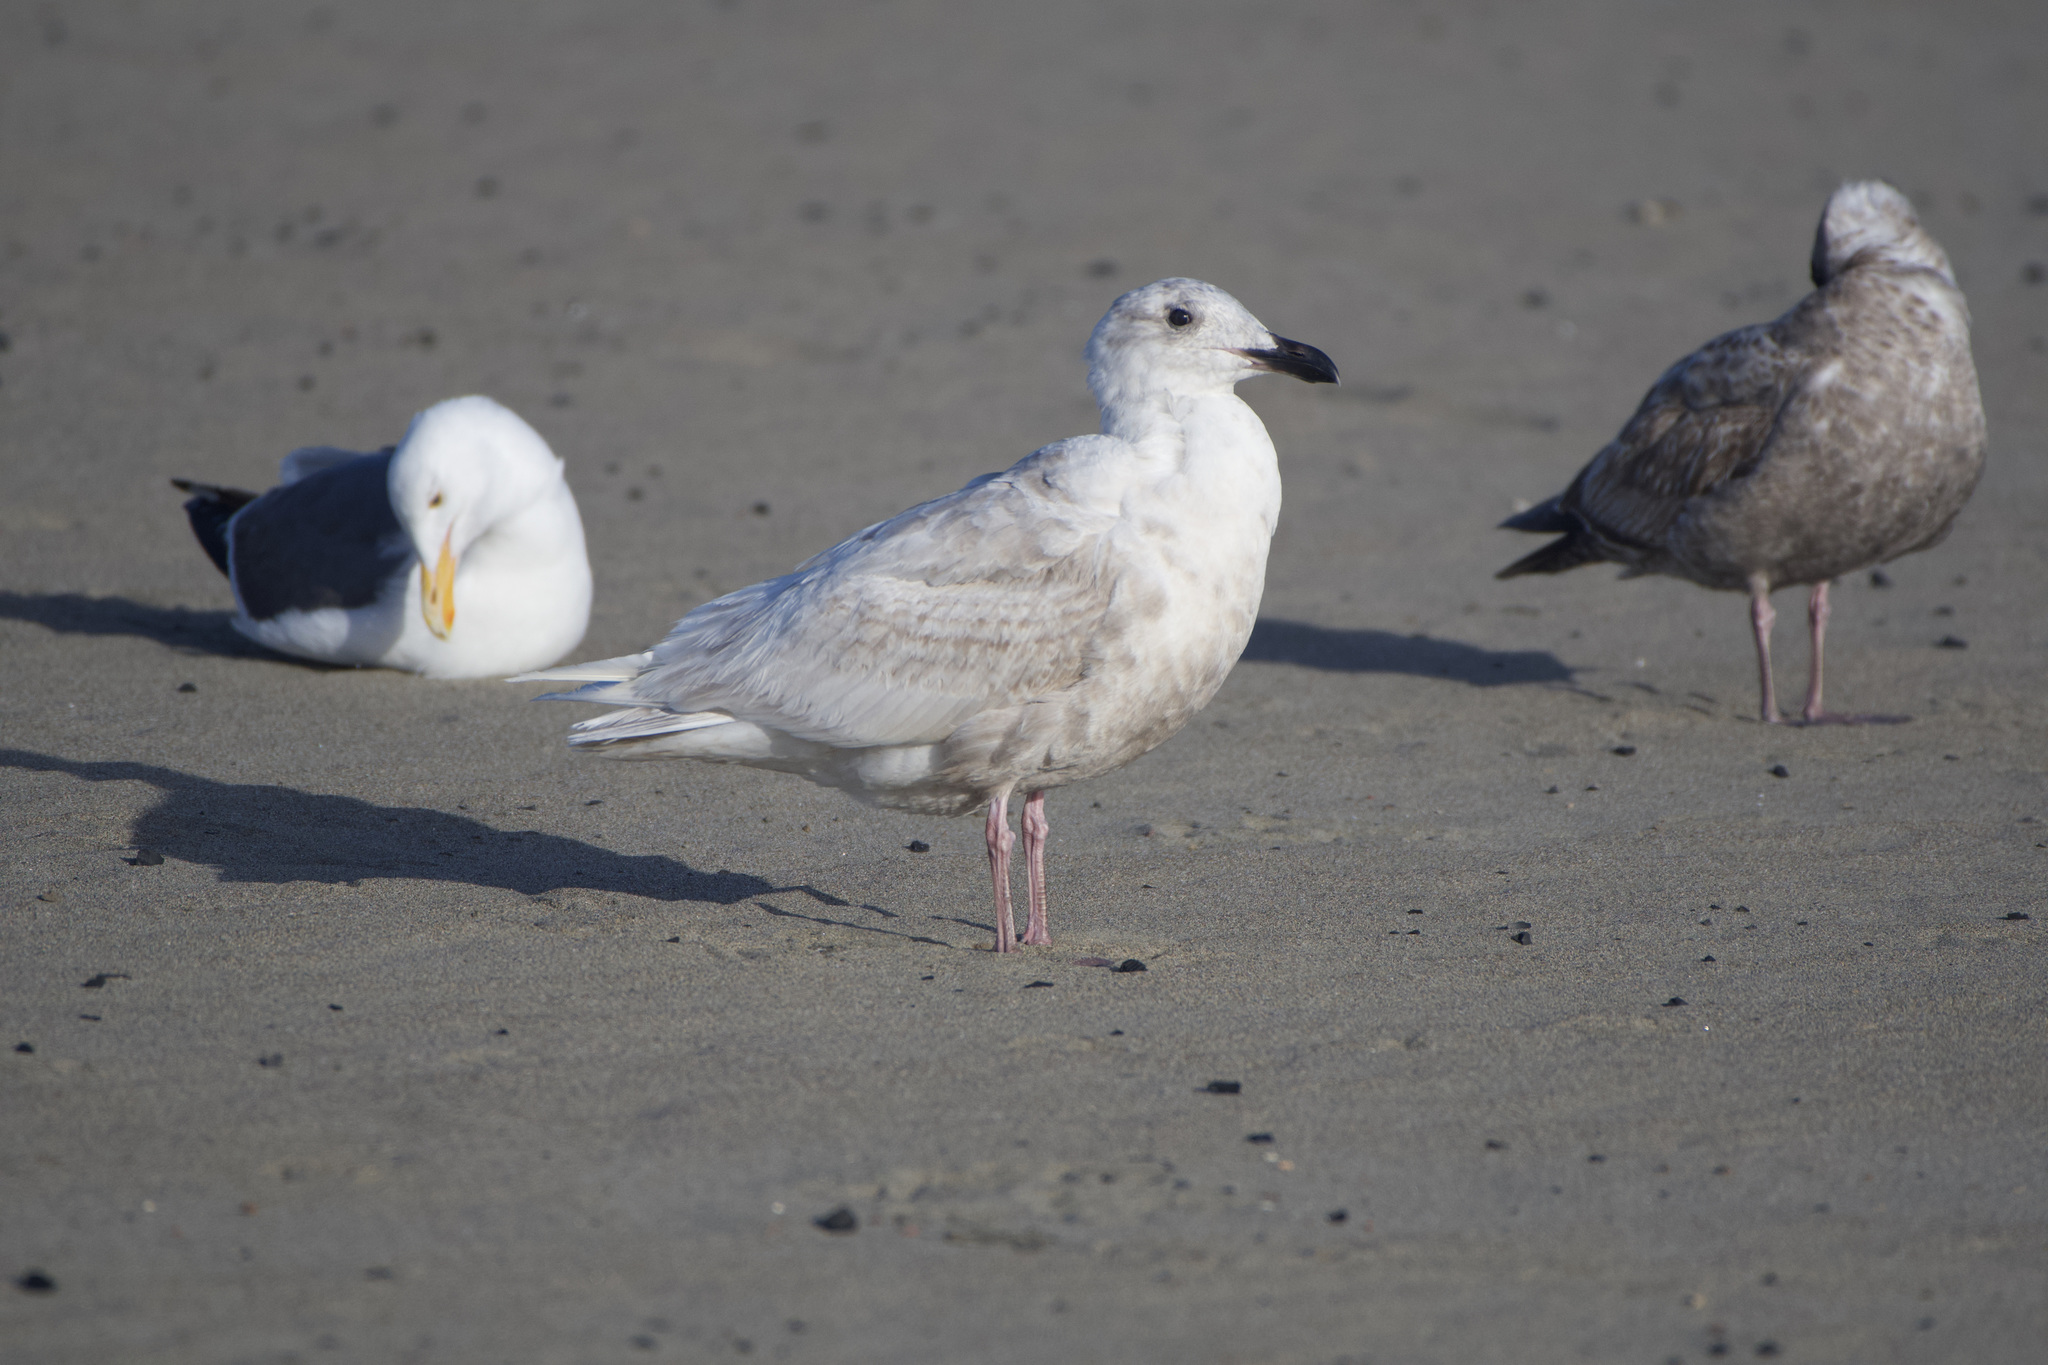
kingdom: Animalia
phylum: Chordata
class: Aves
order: Charadriiformes
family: Laridae
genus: Larus
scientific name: Larus glaucescens
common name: Glaucous-winged gull
